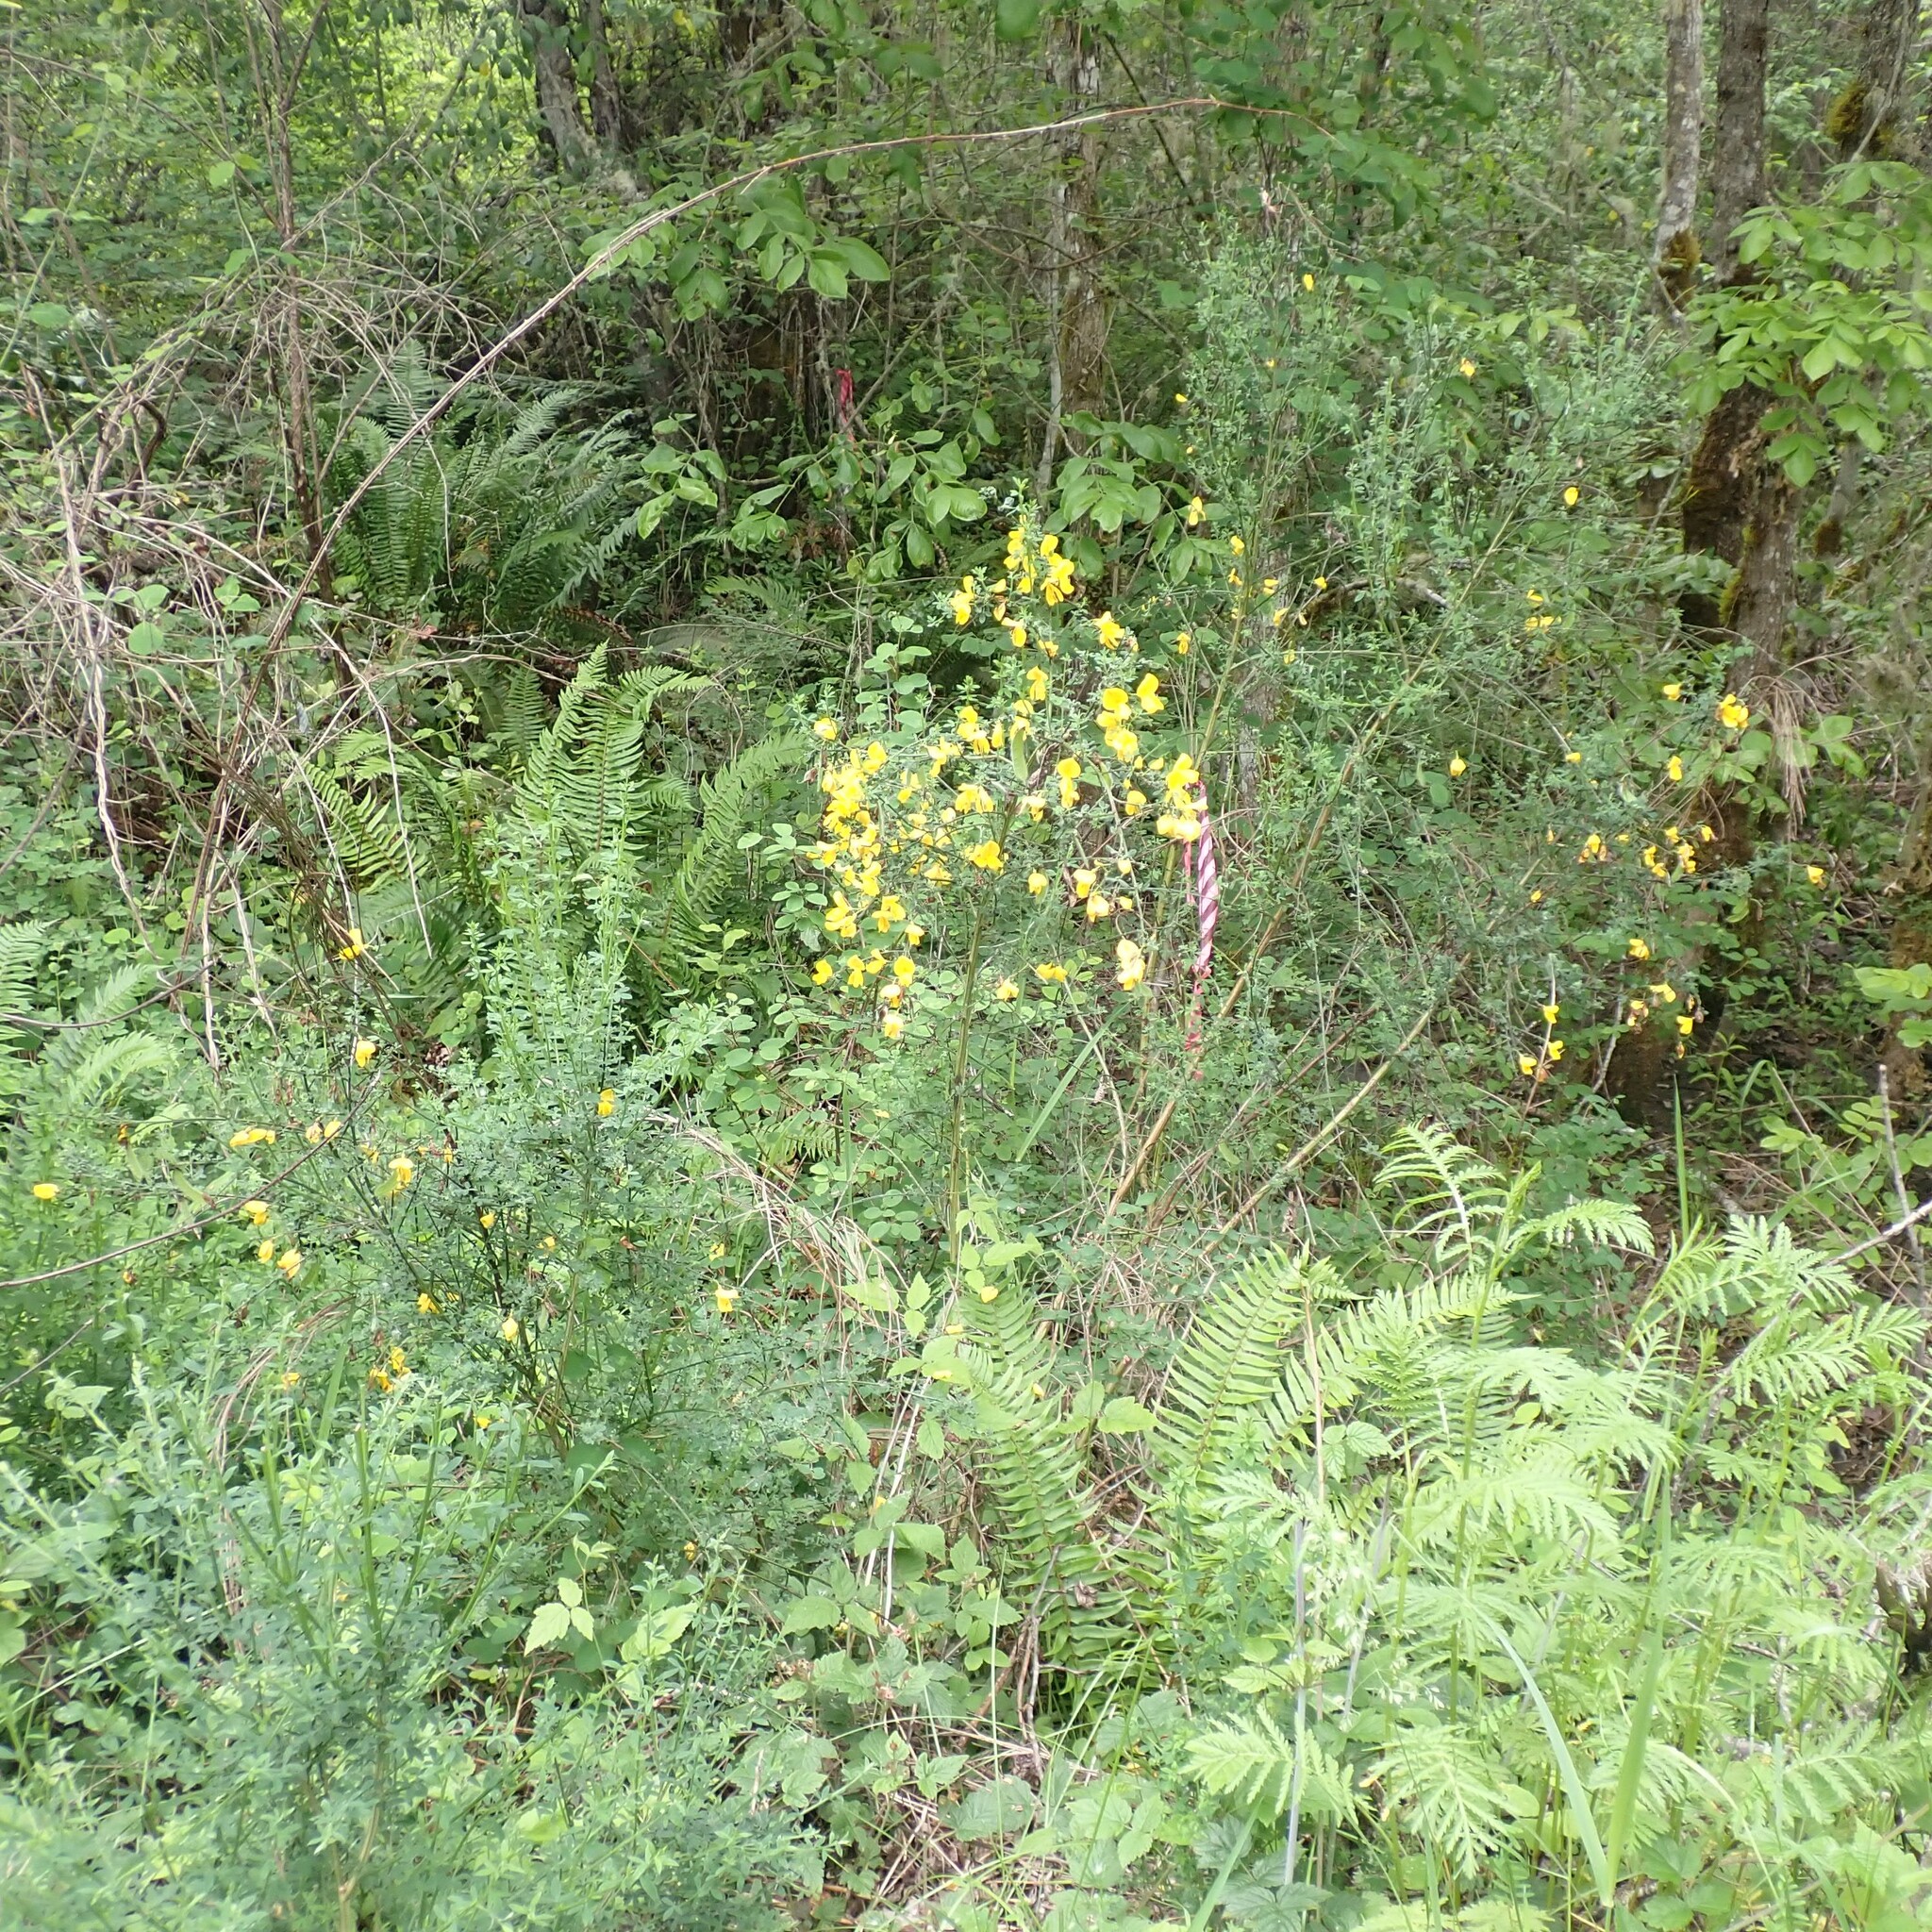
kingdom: Plantae
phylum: Tracheophyta
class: Magnoliopsida
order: Fabales
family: Fabaceae
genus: Cytisus
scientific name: Cytisus scoparius
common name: Scotch broom
